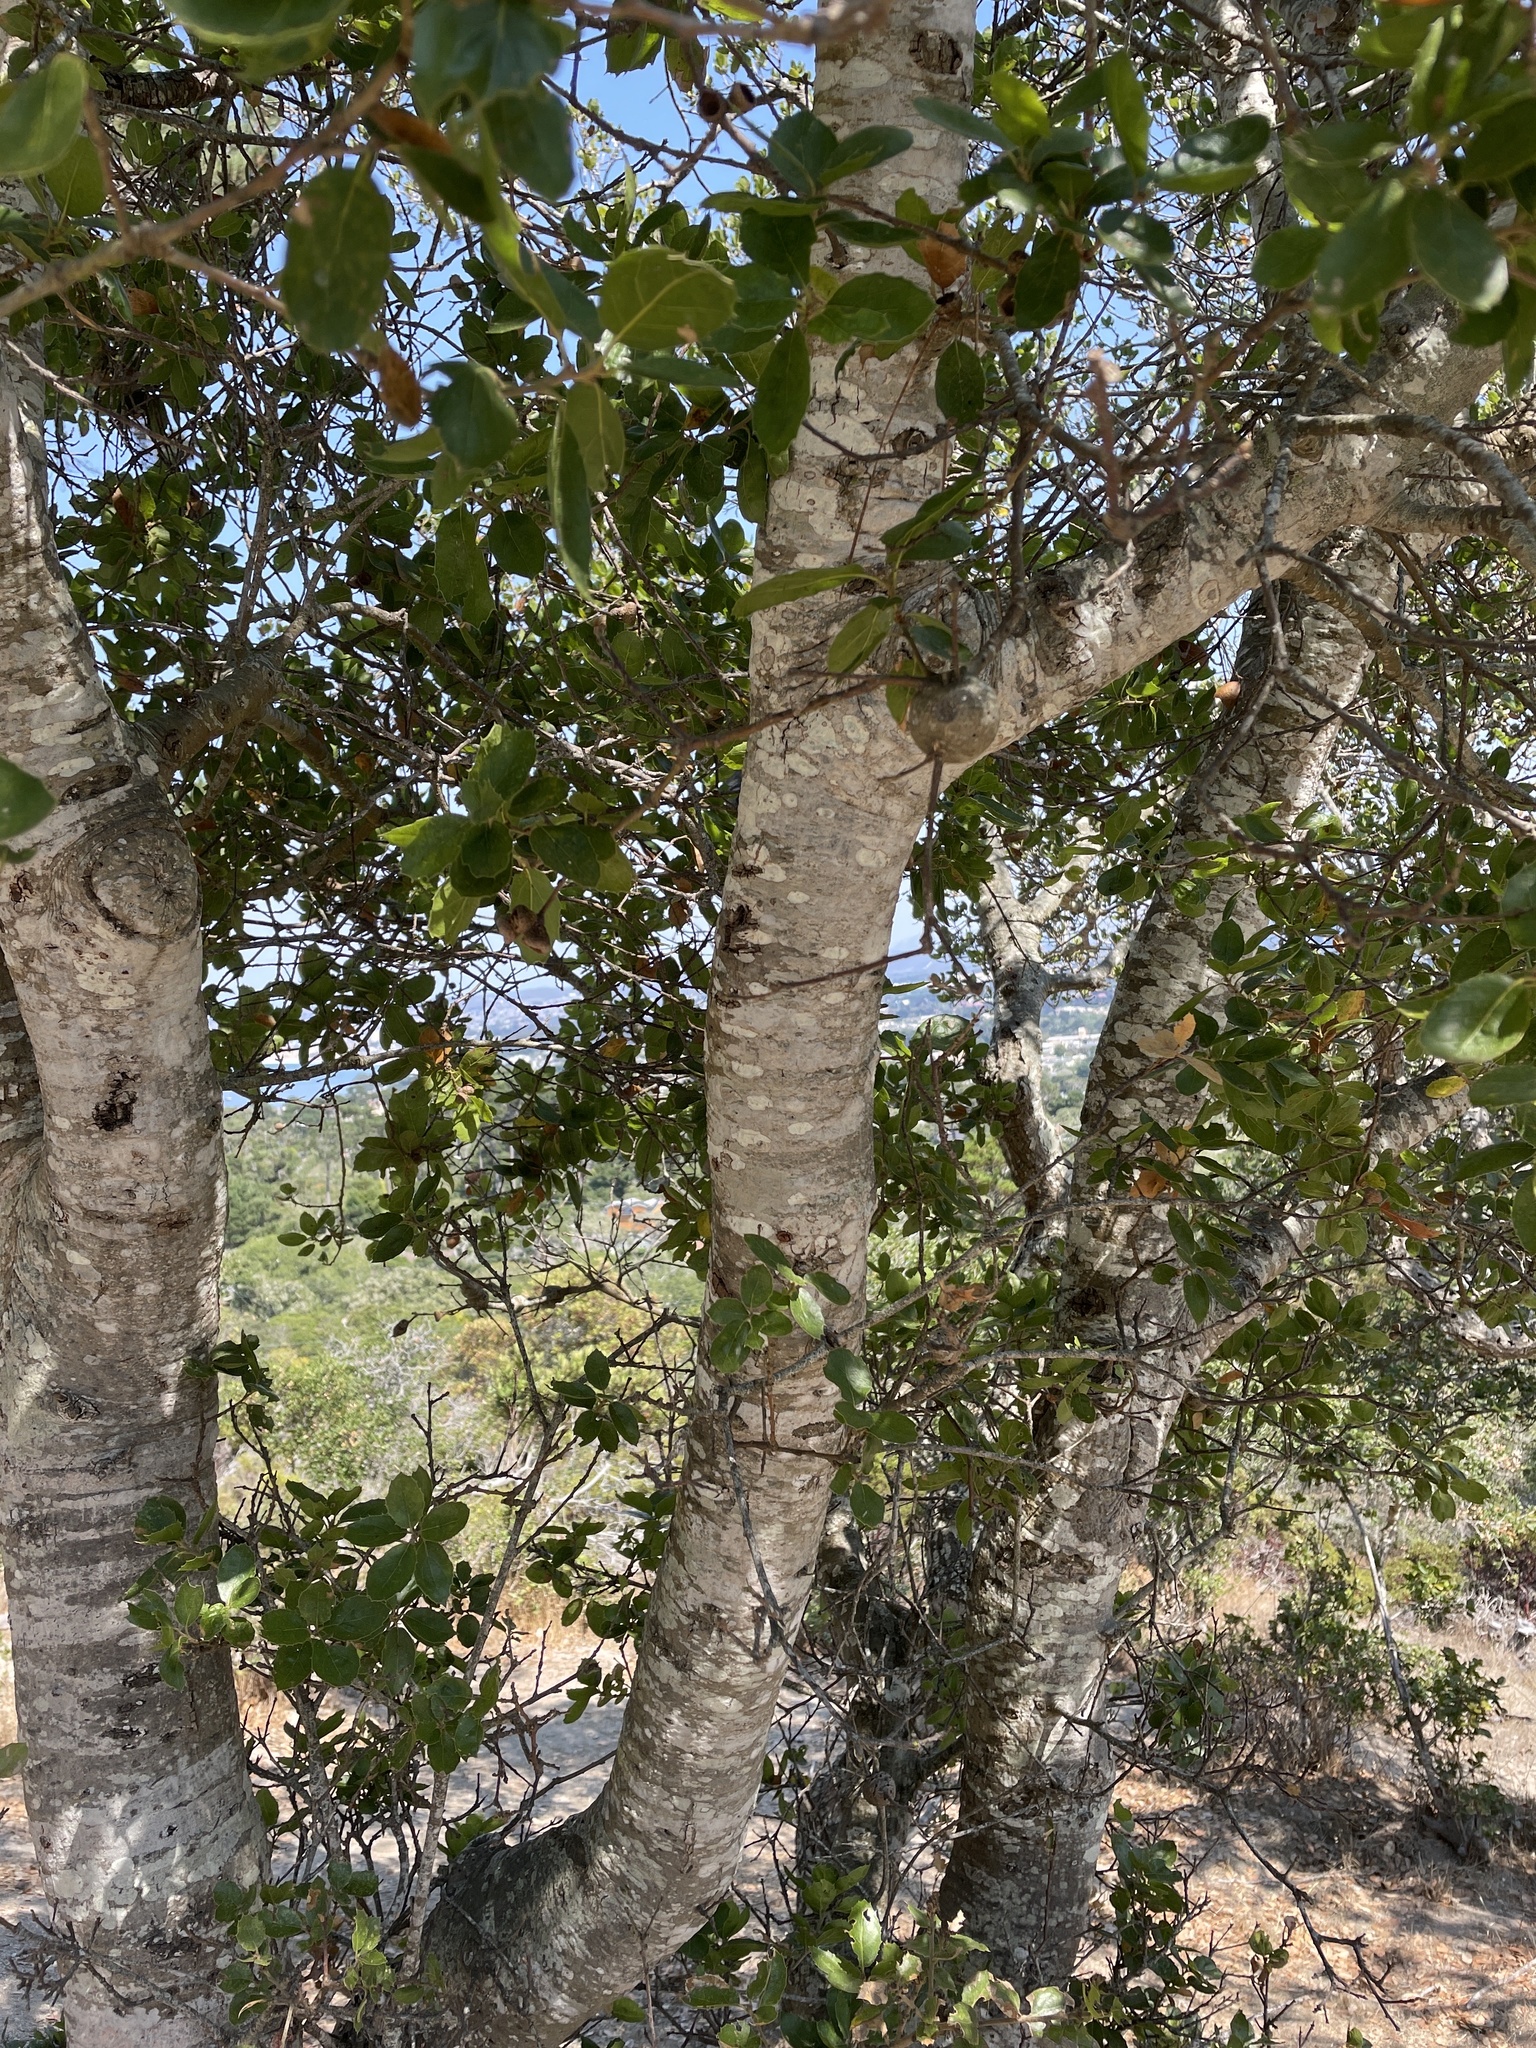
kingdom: Plantae
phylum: Tracheophyta
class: Magnoliopsida
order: Fagales
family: Fagaceae
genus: Quercus
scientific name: Quercus agrifolia
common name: California live oak
